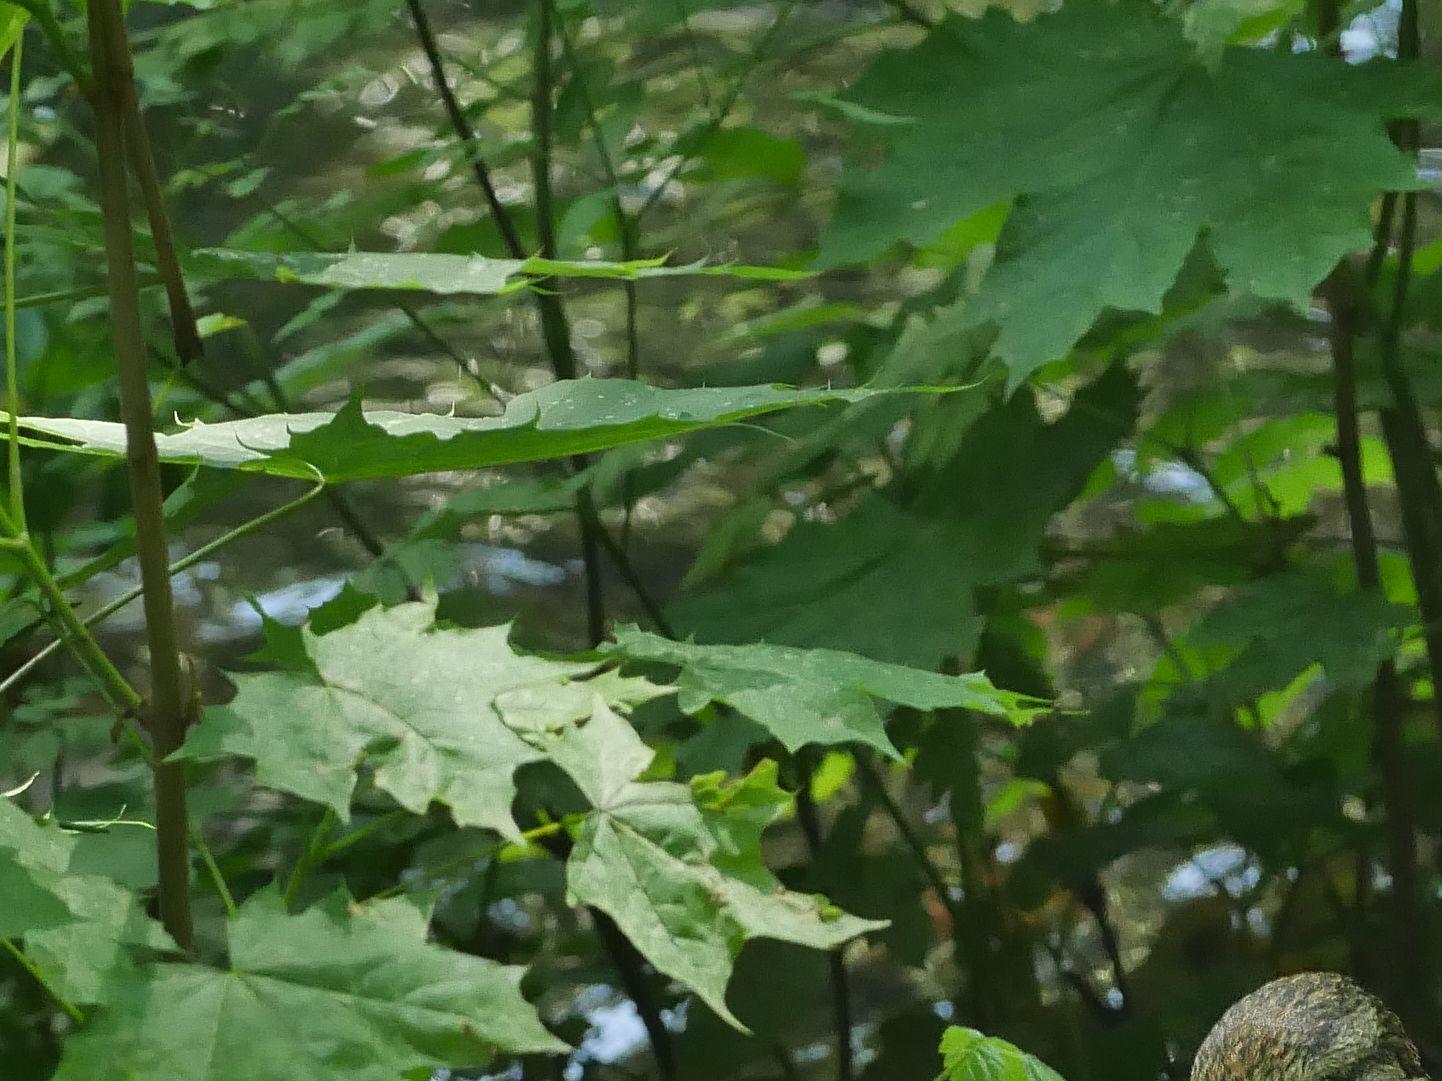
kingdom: Plantae
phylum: Tracheophyta
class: Magnoliopsida
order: Sapindales
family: Sapindaceae
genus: Acer
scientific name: Acer platanoides
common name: Norway maple
